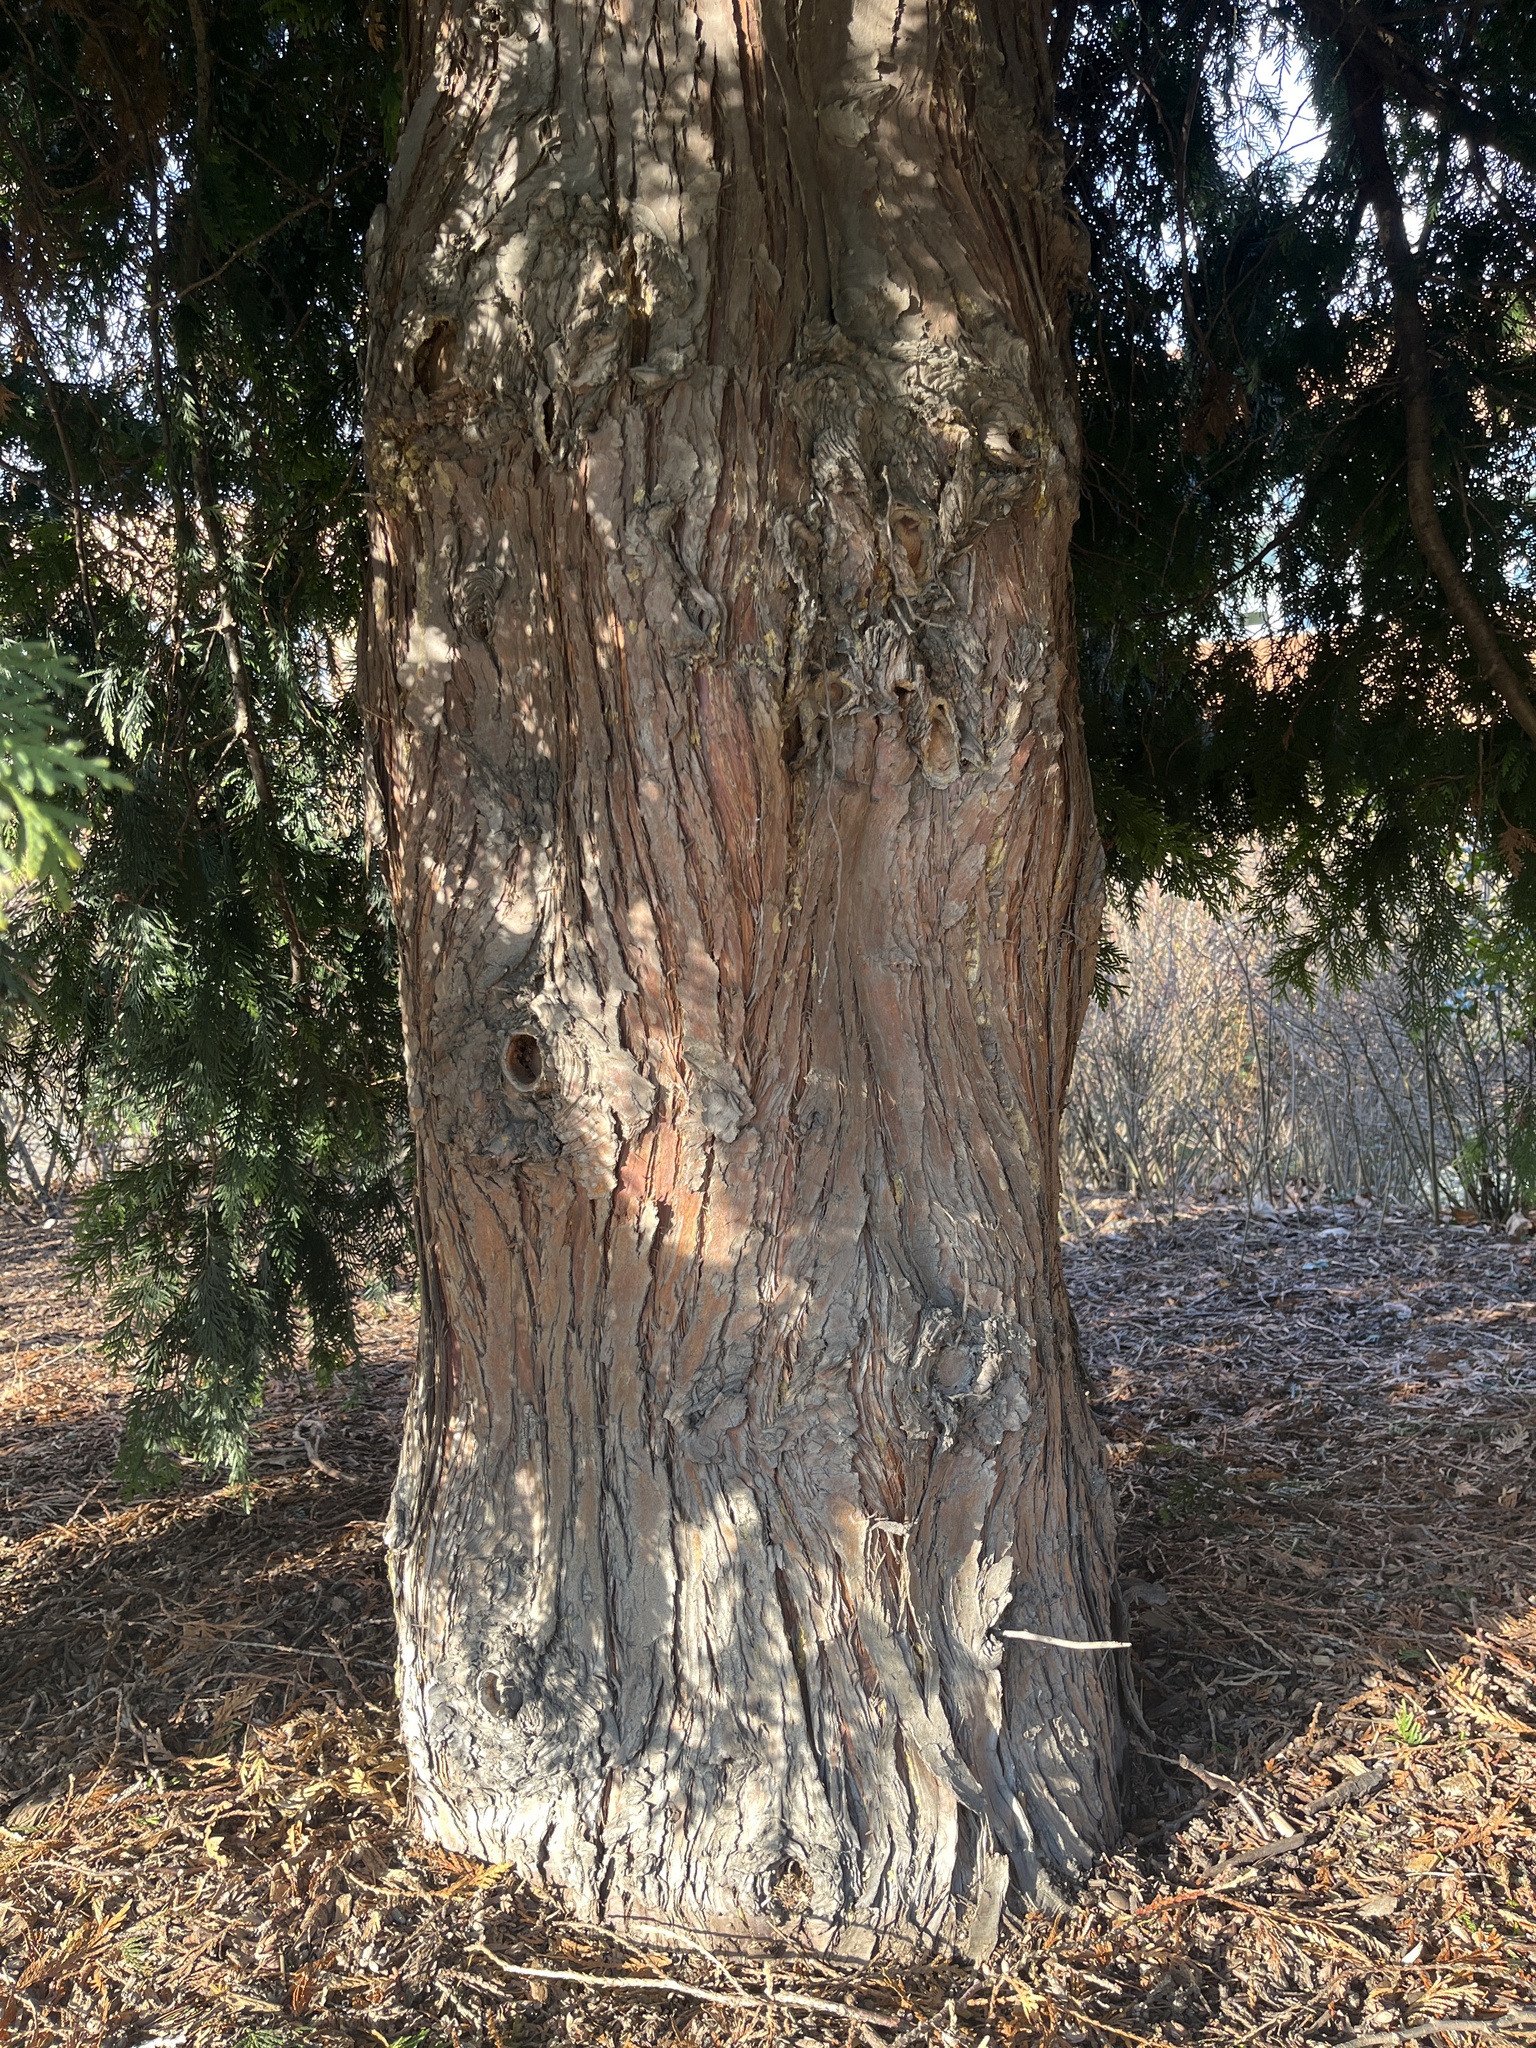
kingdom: Plantae
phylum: Tracheophyta
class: Pinopsida
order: Pinales
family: Cupressaceae
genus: Thuja
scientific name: Thuja plicata
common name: Western red-cedar
